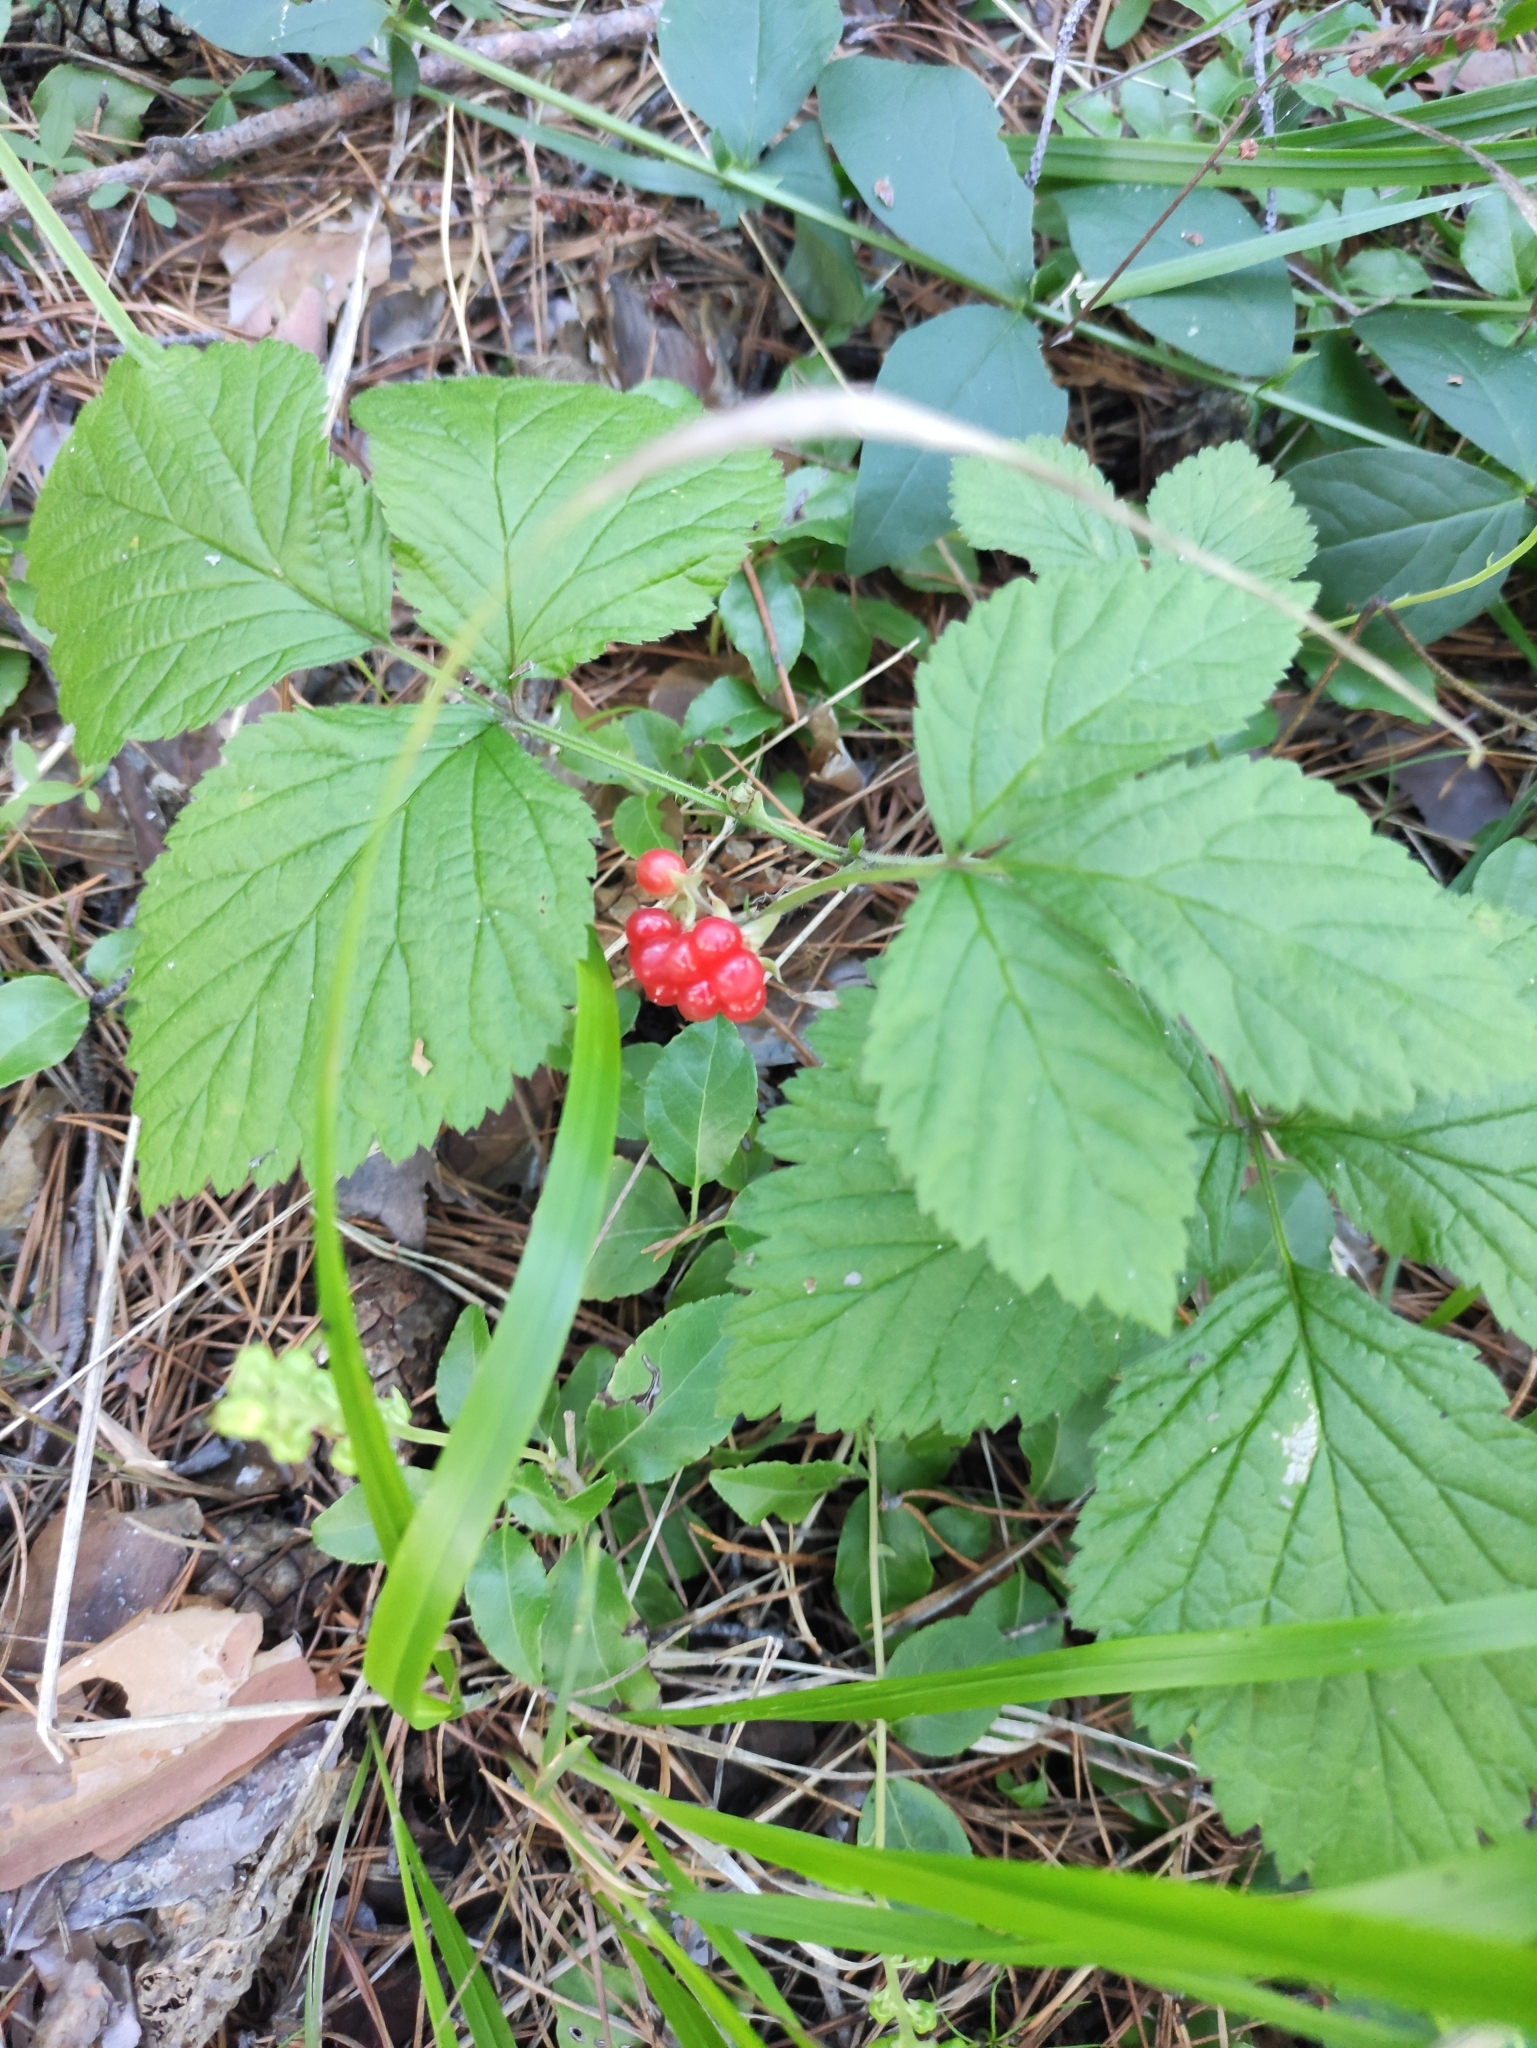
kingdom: Plantae
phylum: Tracheophyta
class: Magnoliopsida
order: Rosales
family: Rosaceae
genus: Rubus
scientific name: Rubus saxatilis
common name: Stone bramble
